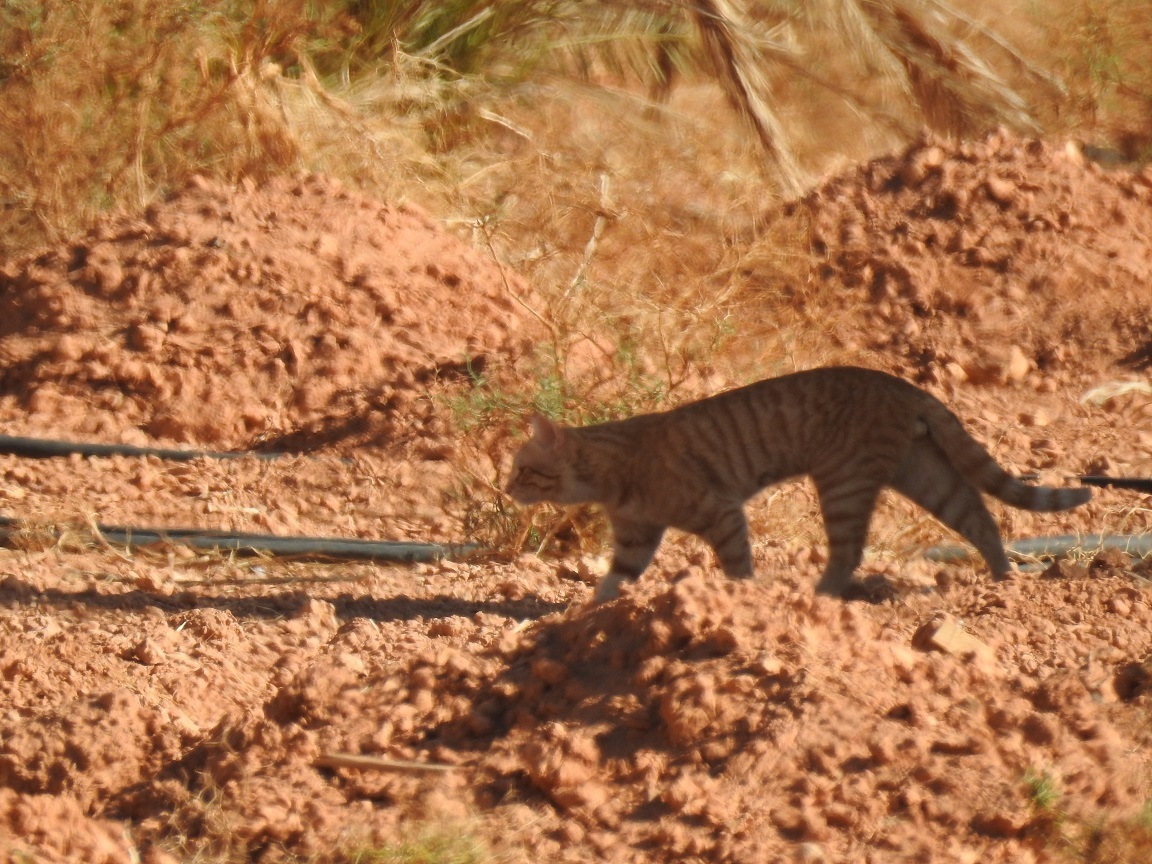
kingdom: Animalia
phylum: Chordata
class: Mammalia
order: Carnivora
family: Felidae
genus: Felis
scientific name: Felis catus
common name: Domestic cat
